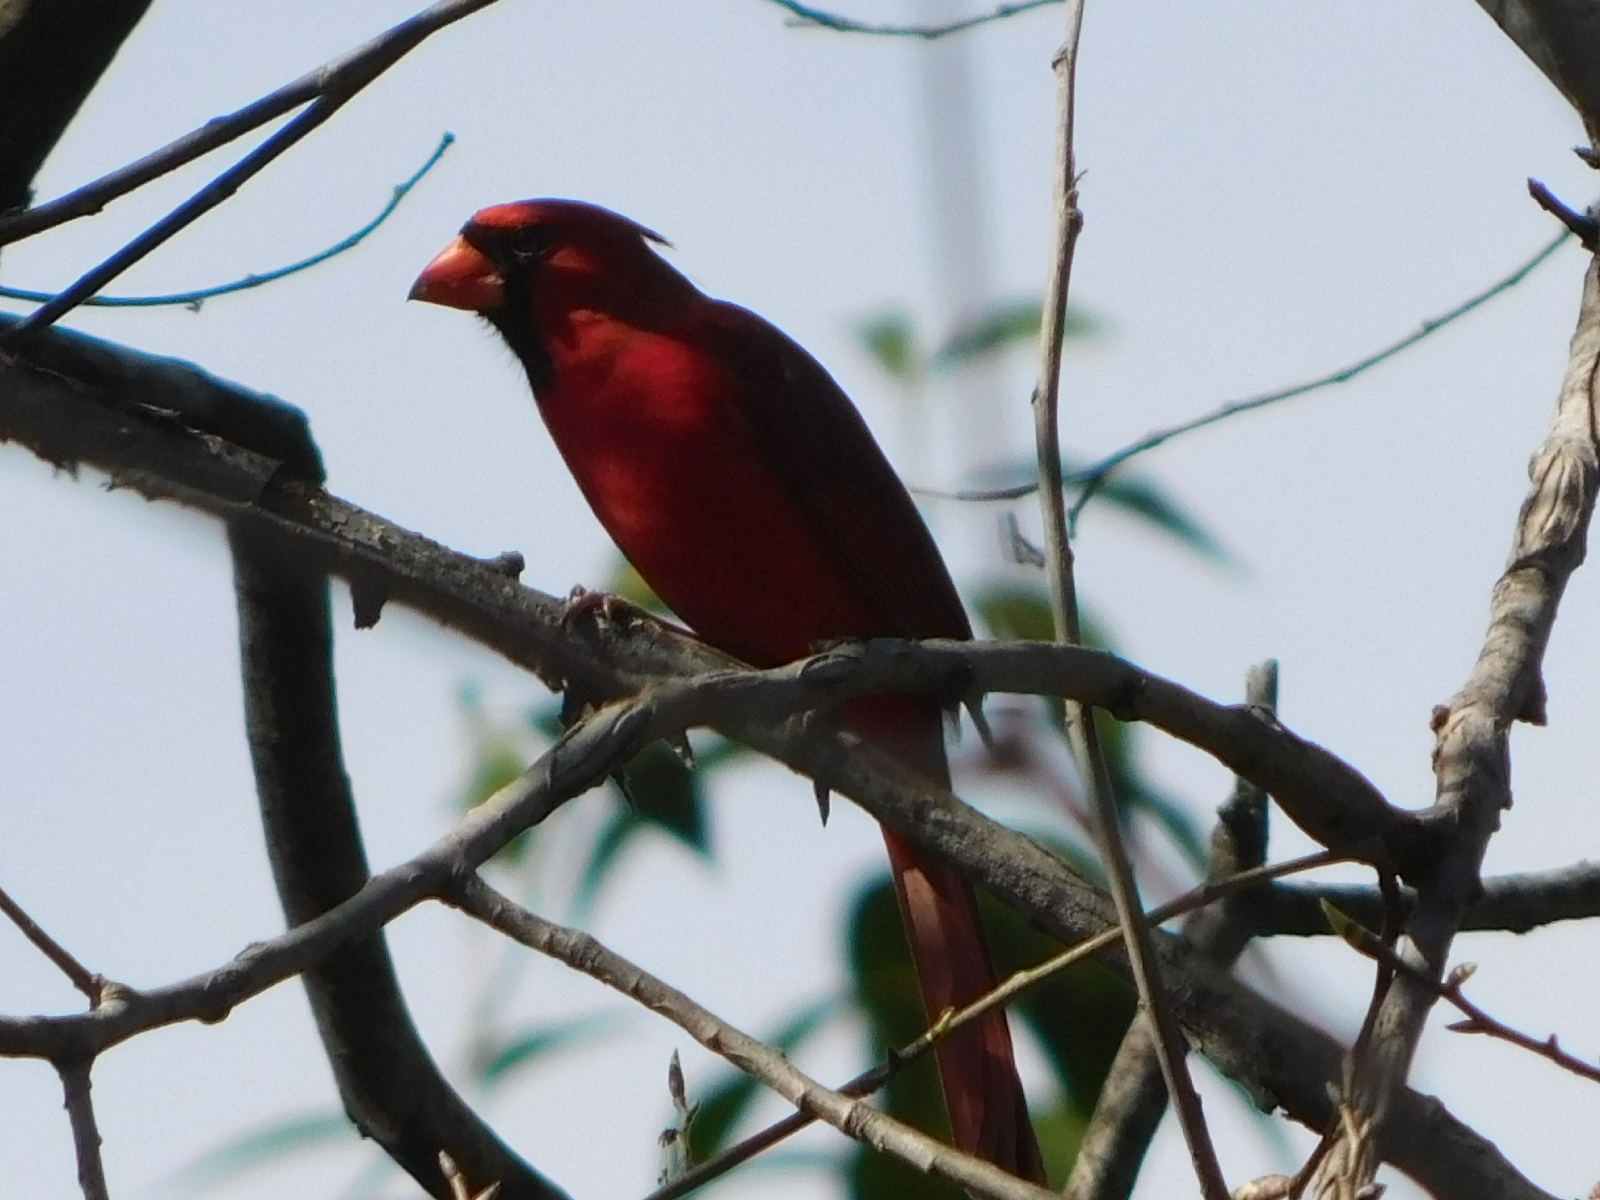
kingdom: Animalia
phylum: Chordata
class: Aves
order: Passeriformes
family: Cardinalidae
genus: Cardinalis
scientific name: Cardinalis cardinalis
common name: Northern cardinal
